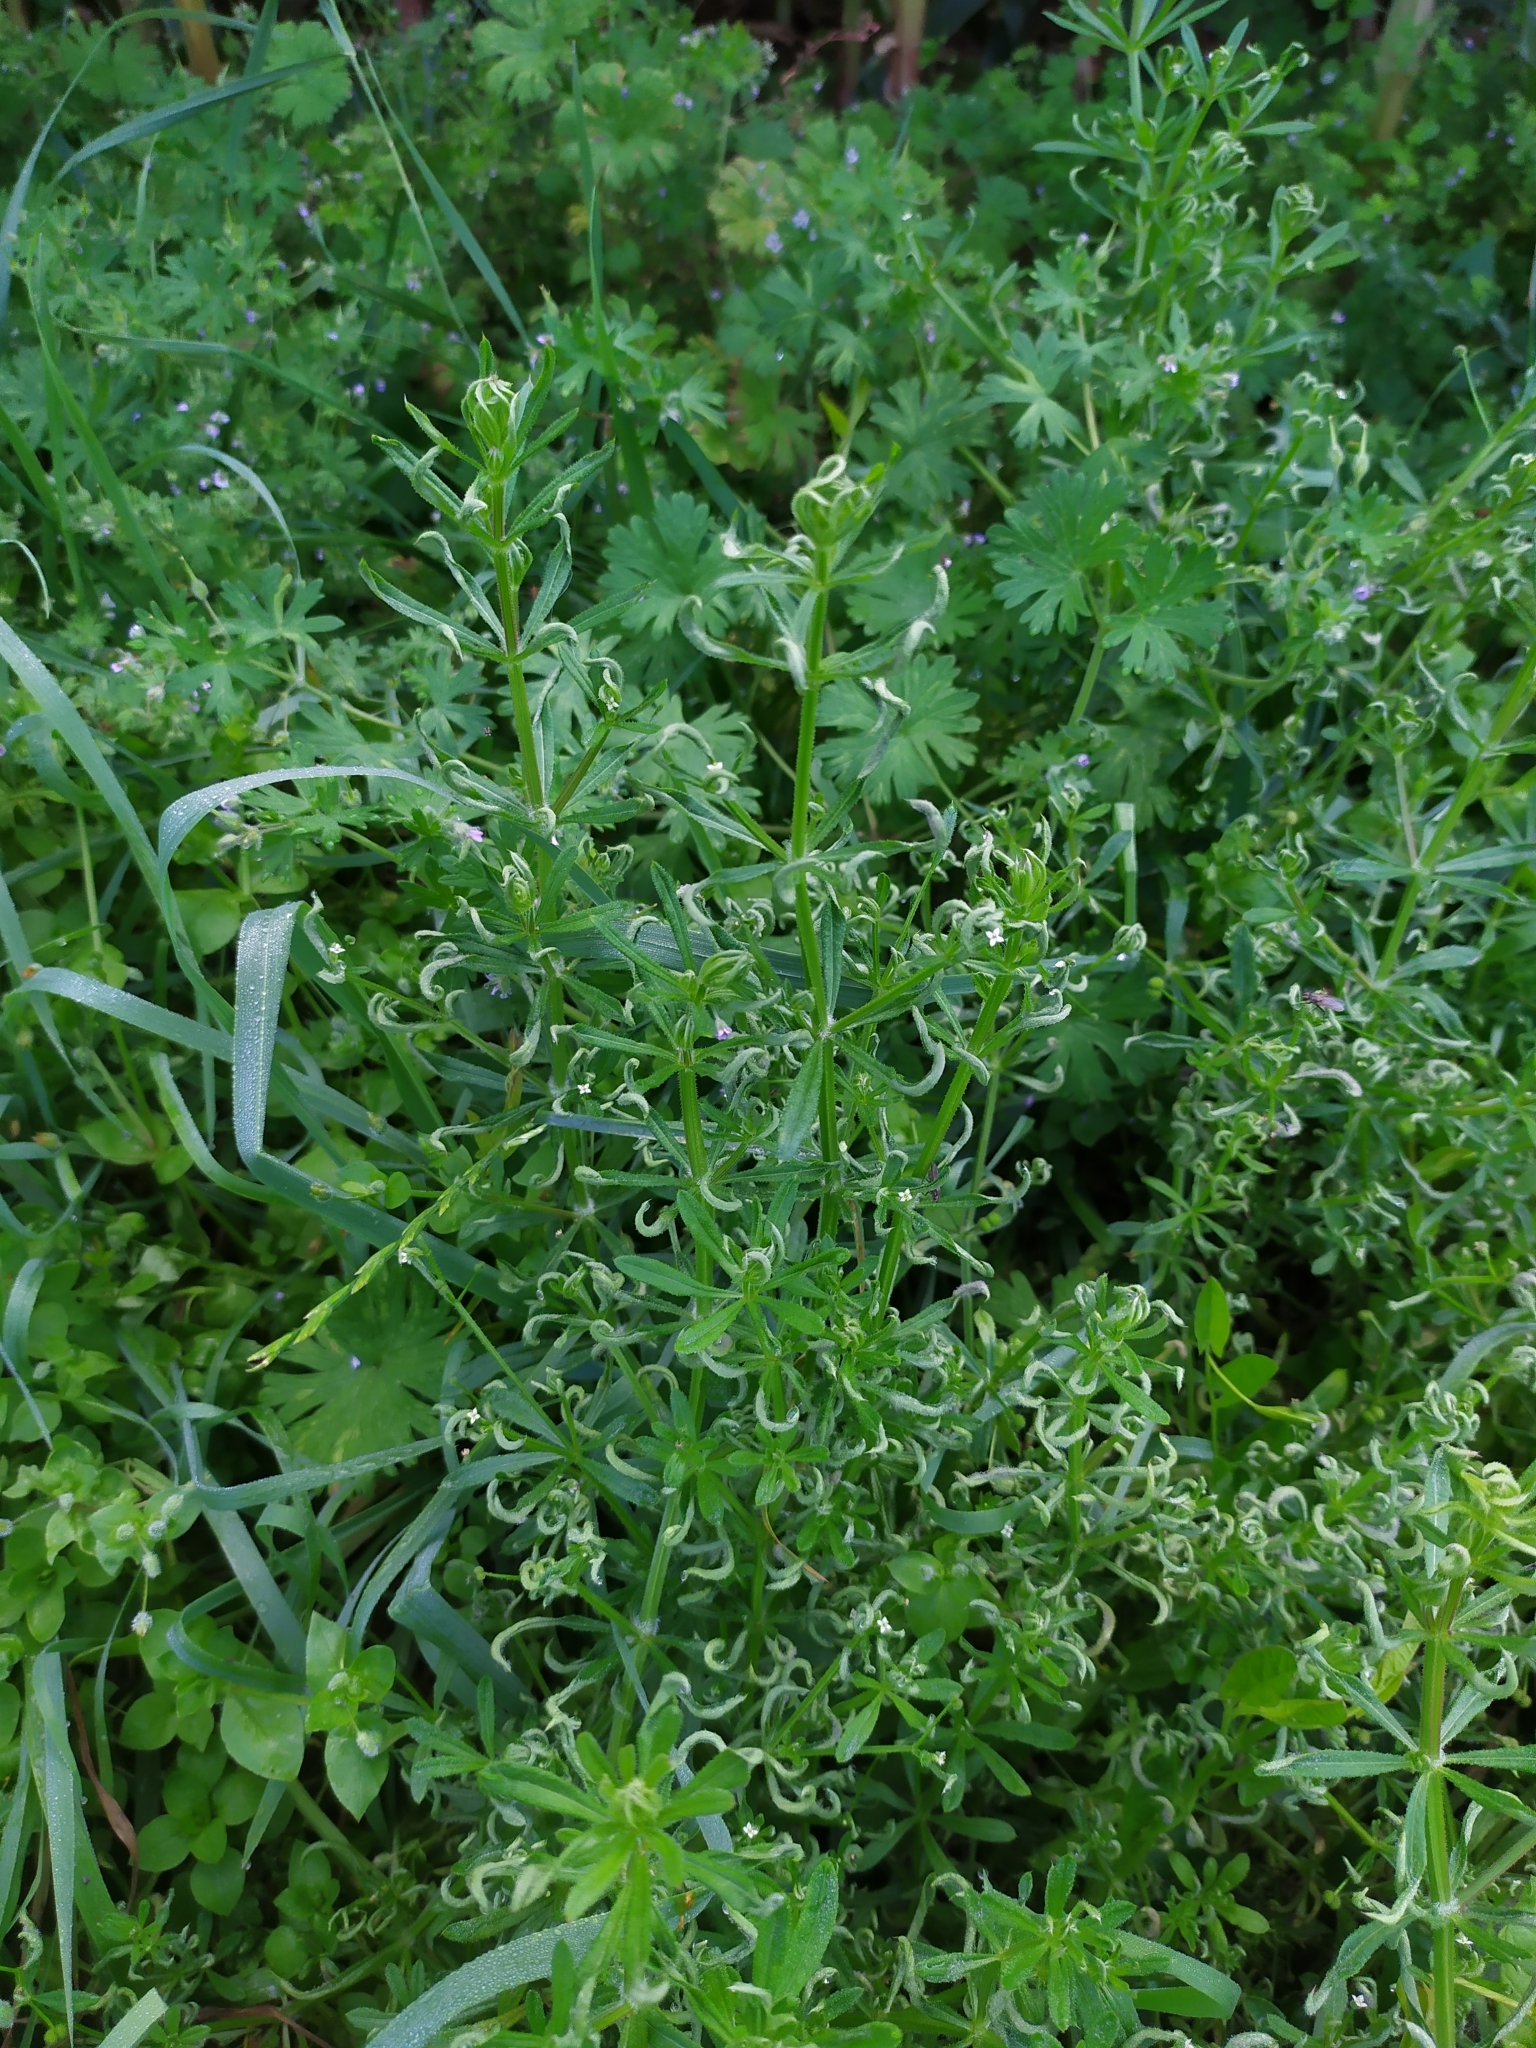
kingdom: Animalia
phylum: Arthropoda
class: Arachnida
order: Trombidiformes
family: Eriophyidae
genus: Cecidophyes
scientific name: Cecidophyes galii
